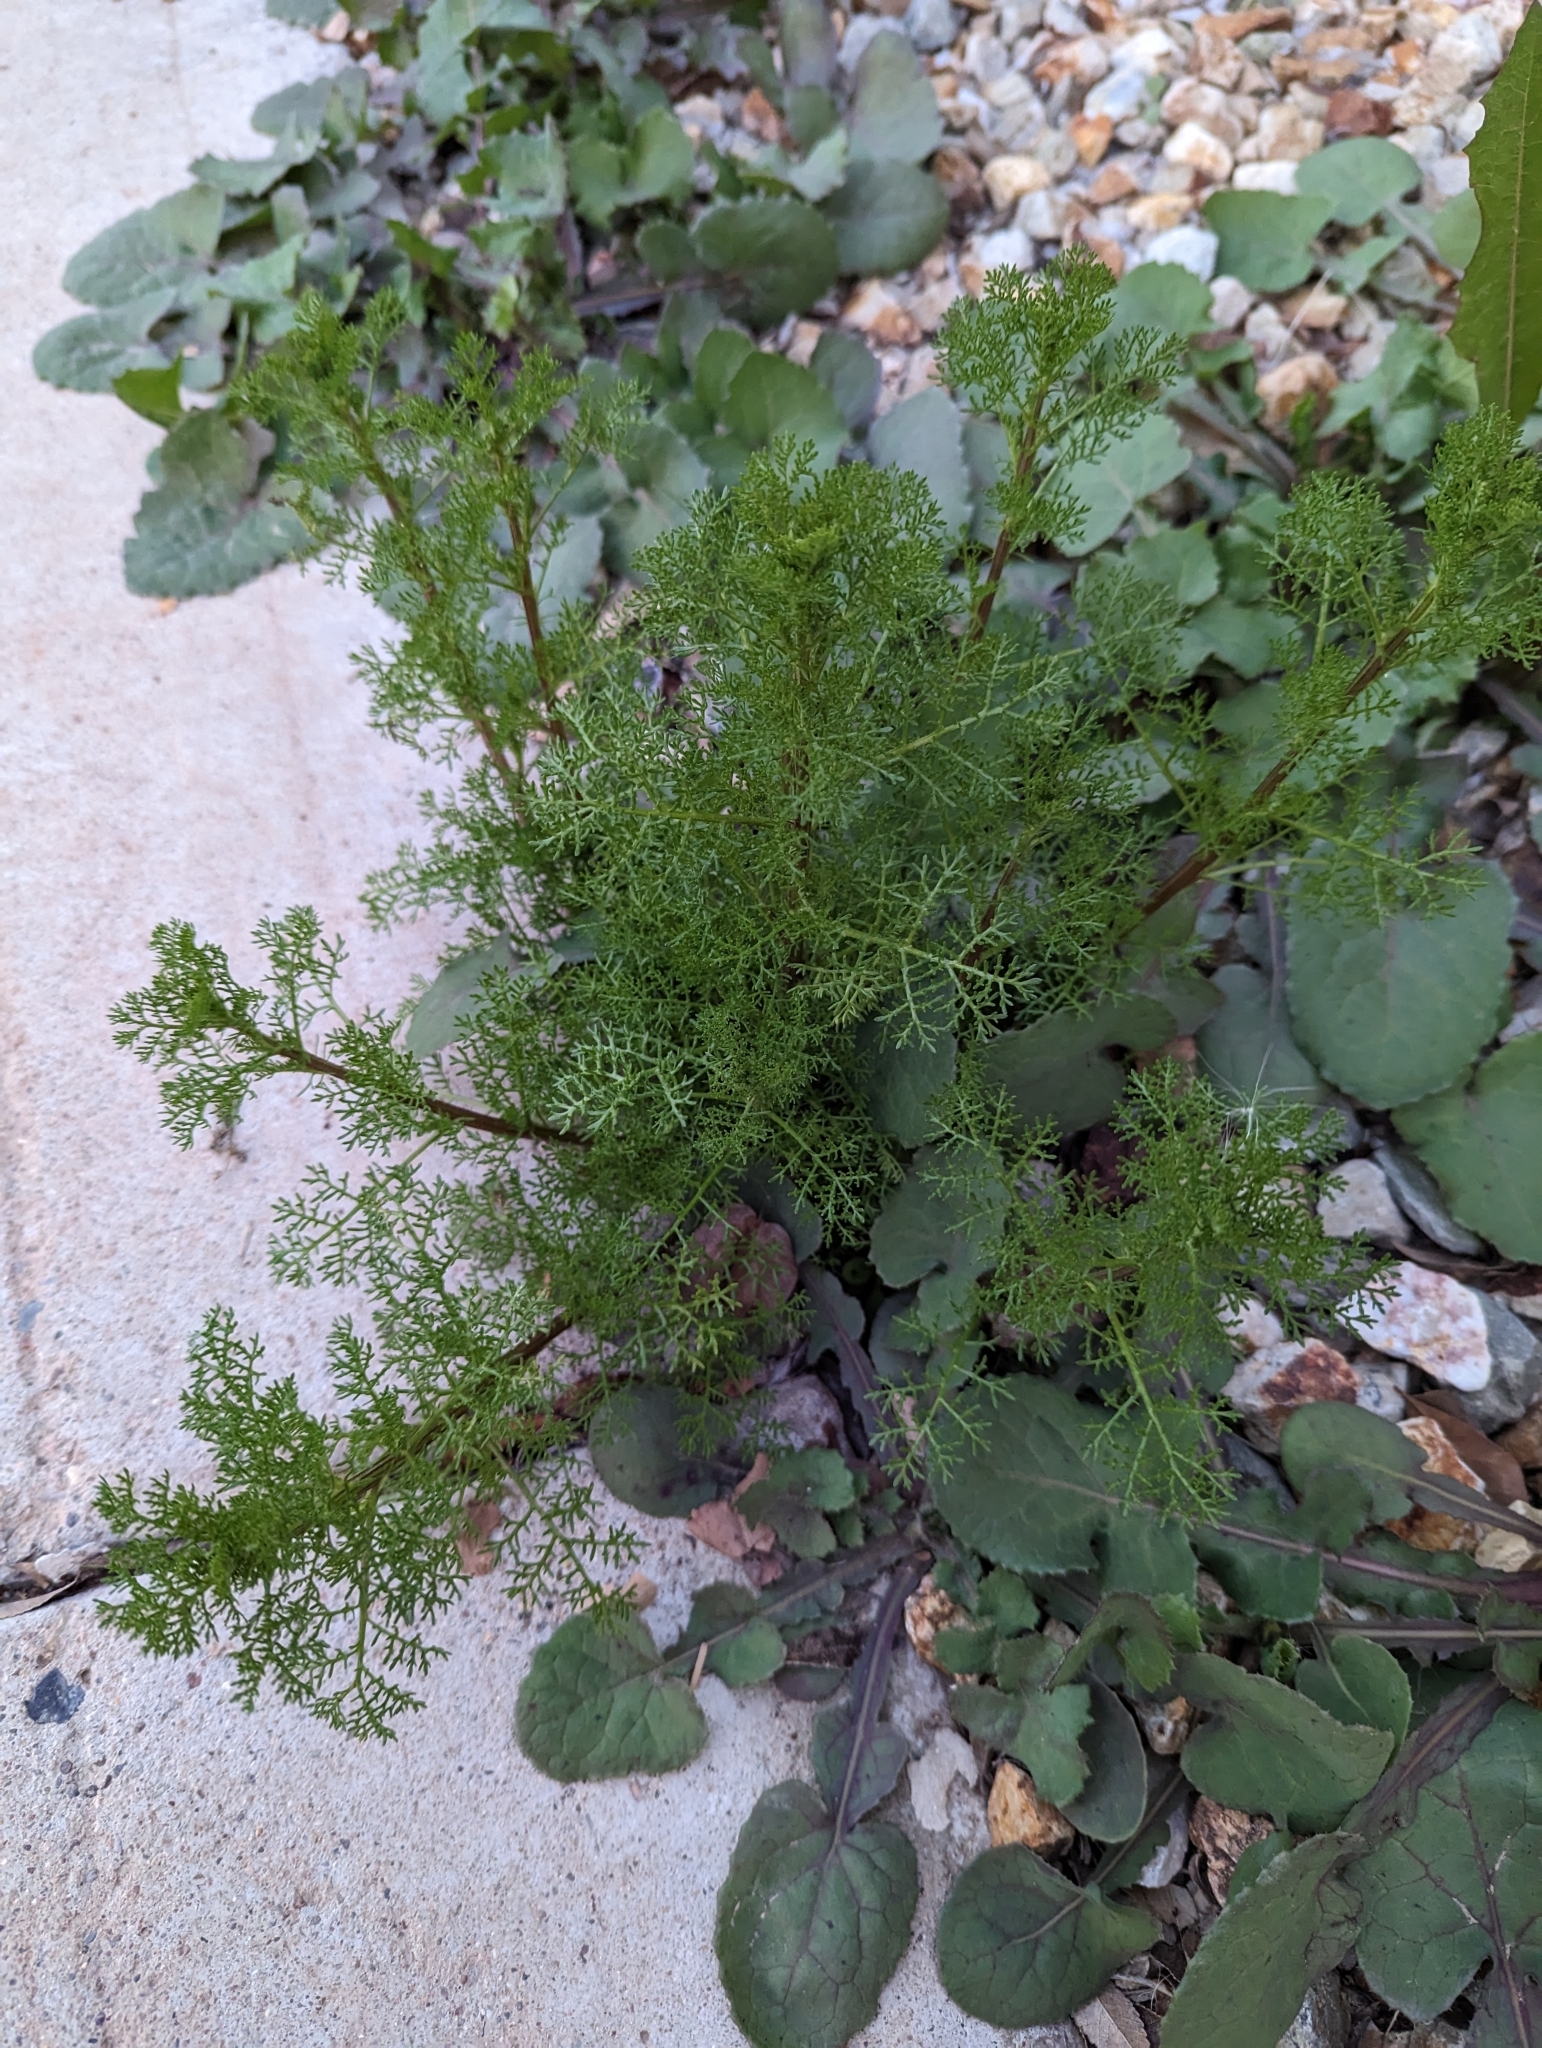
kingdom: Plantae
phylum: Tracheophyta
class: Magnoliopsida
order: Asterales
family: Asteraceae
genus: Oncosiphon
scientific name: Oncosiphon pilulifer
